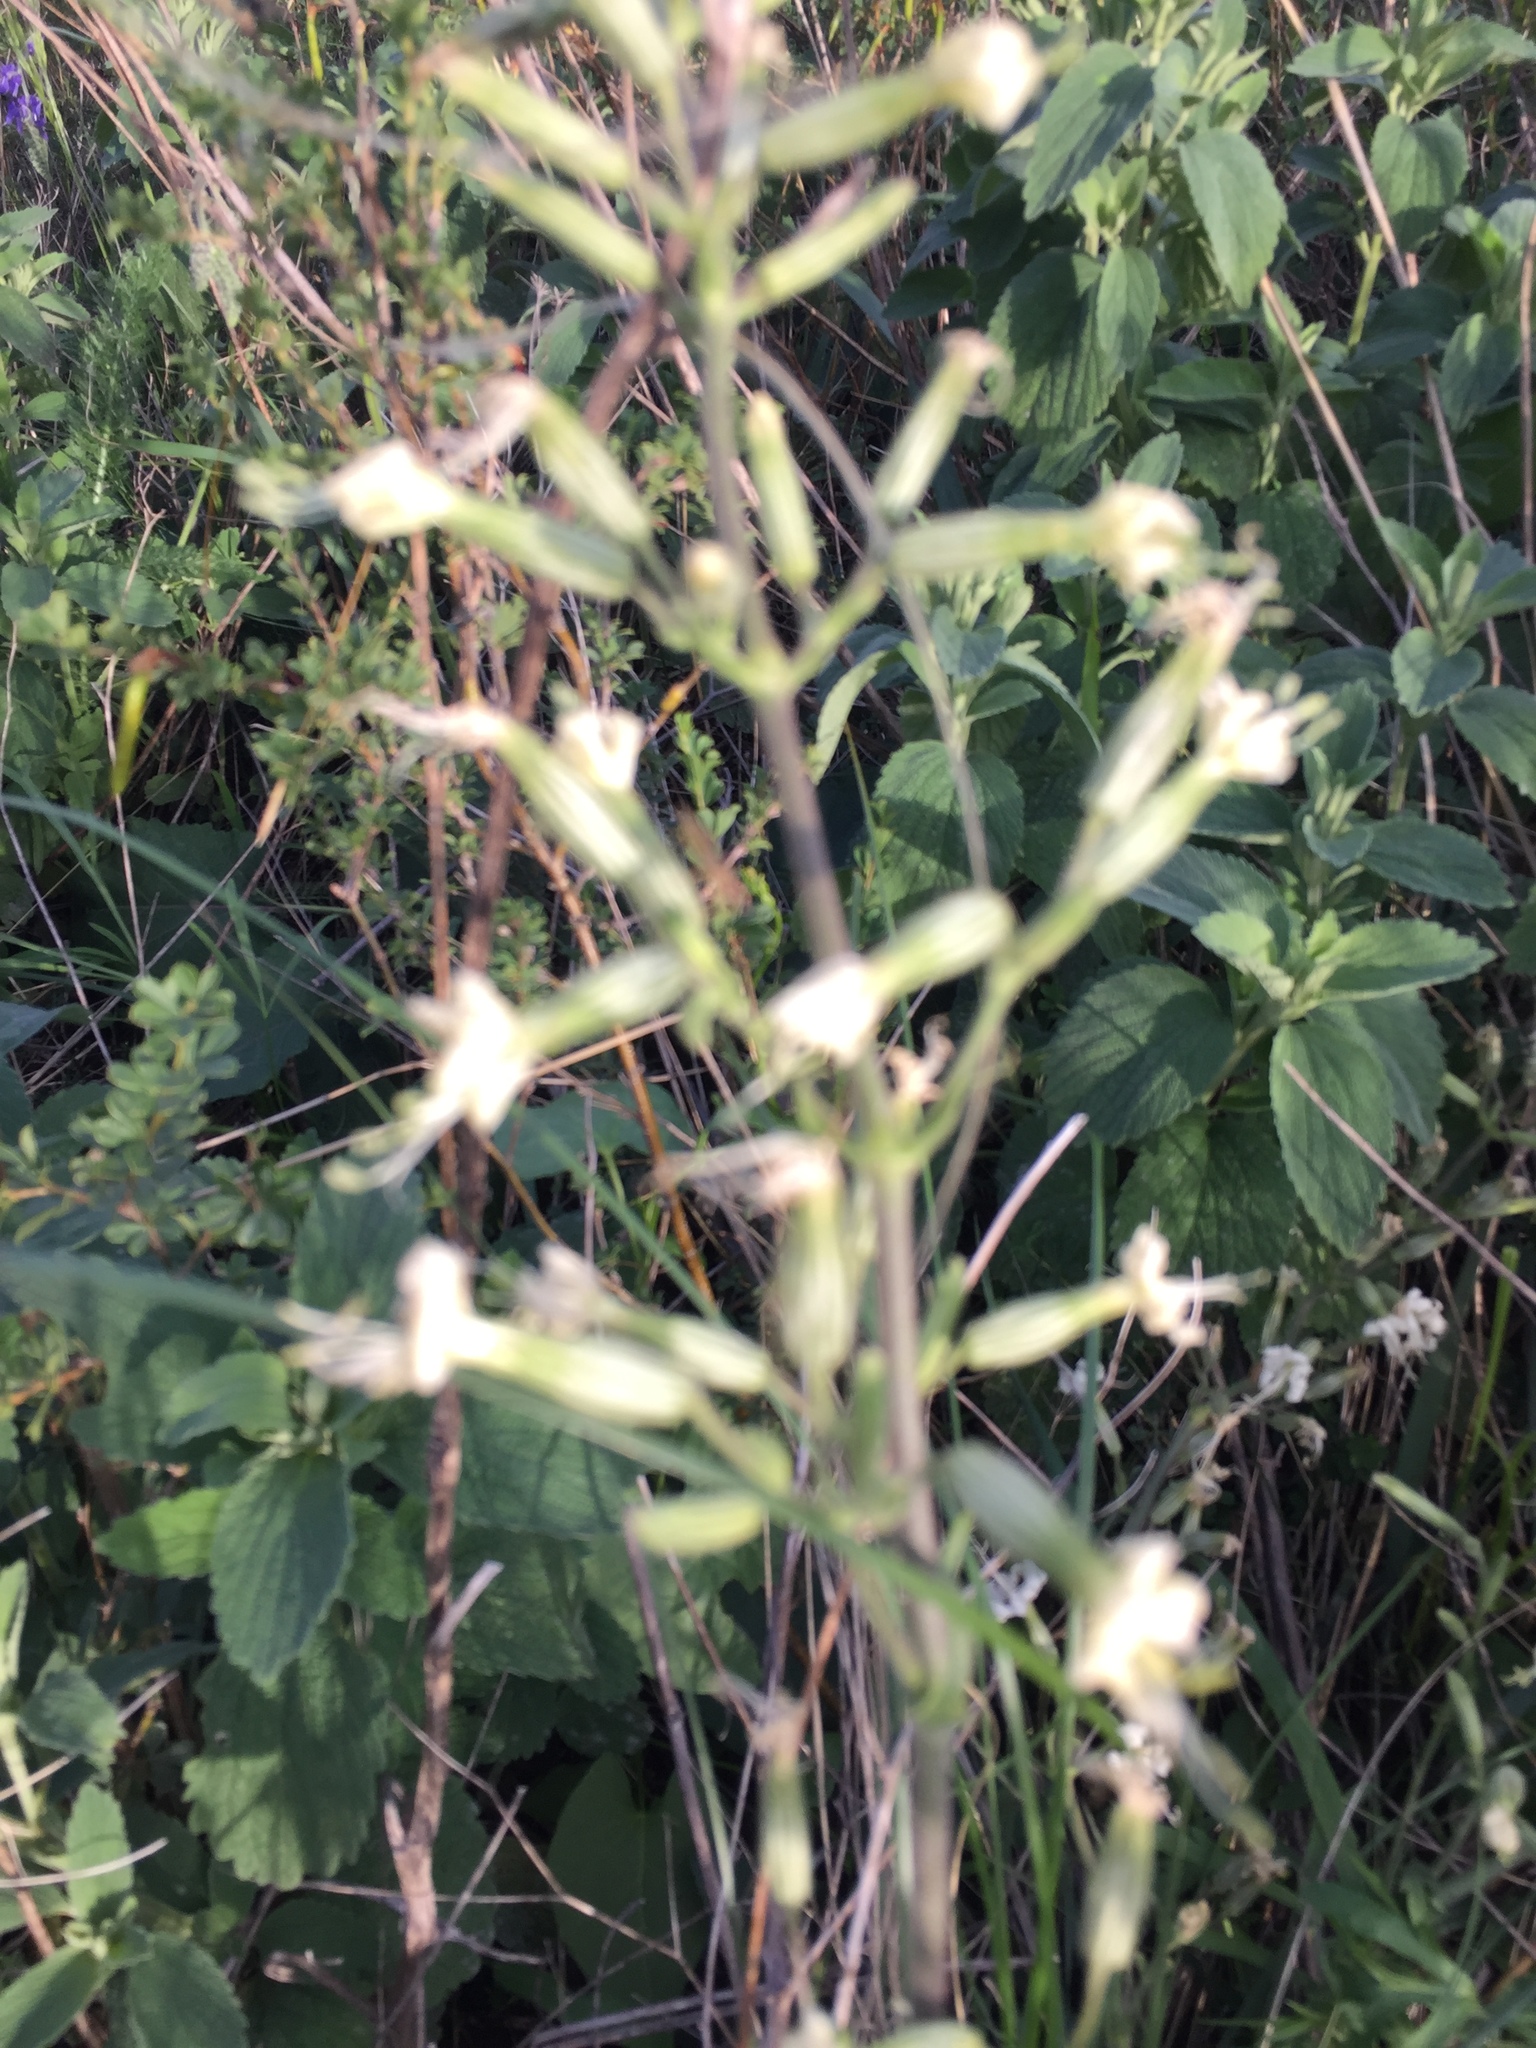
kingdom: Plantae
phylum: Tracheophyta
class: Magnoliopsida
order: Caryophyllales
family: Caryophyllaceae
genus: Silene
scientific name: Silene viscosa
